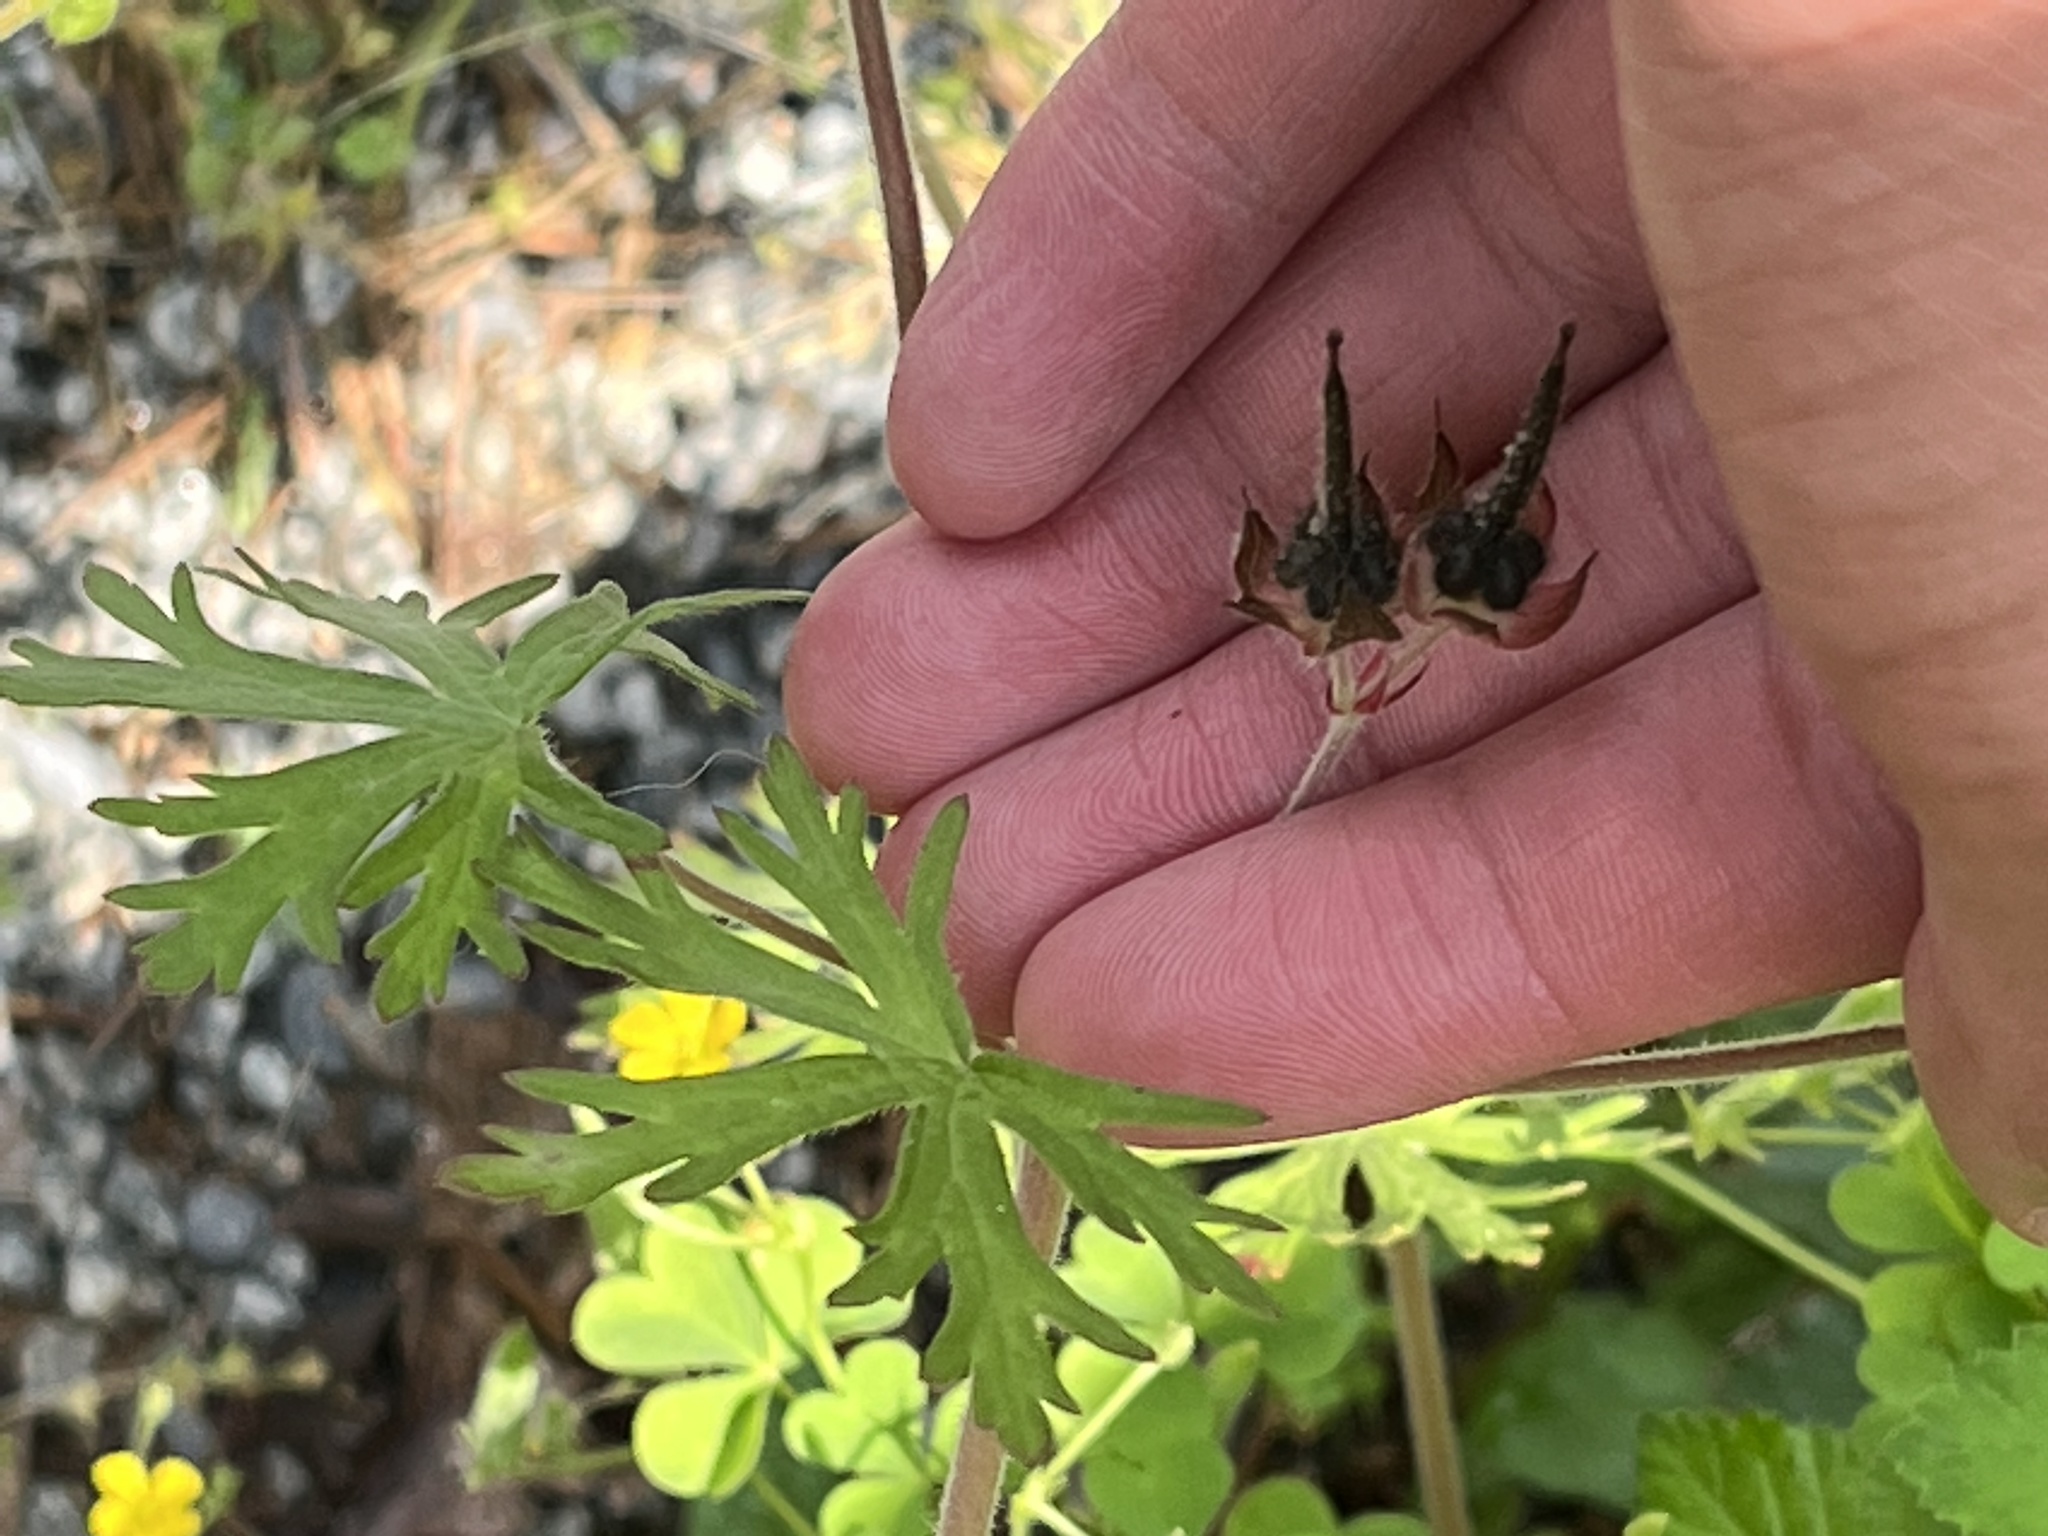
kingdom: Plantae
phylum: Tracheophyta
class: Magnoliopsida
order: Geraniales
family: Geraniaceae
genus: Geranium
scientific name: Geranium carolinianum
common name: Carolina crane's-bill
